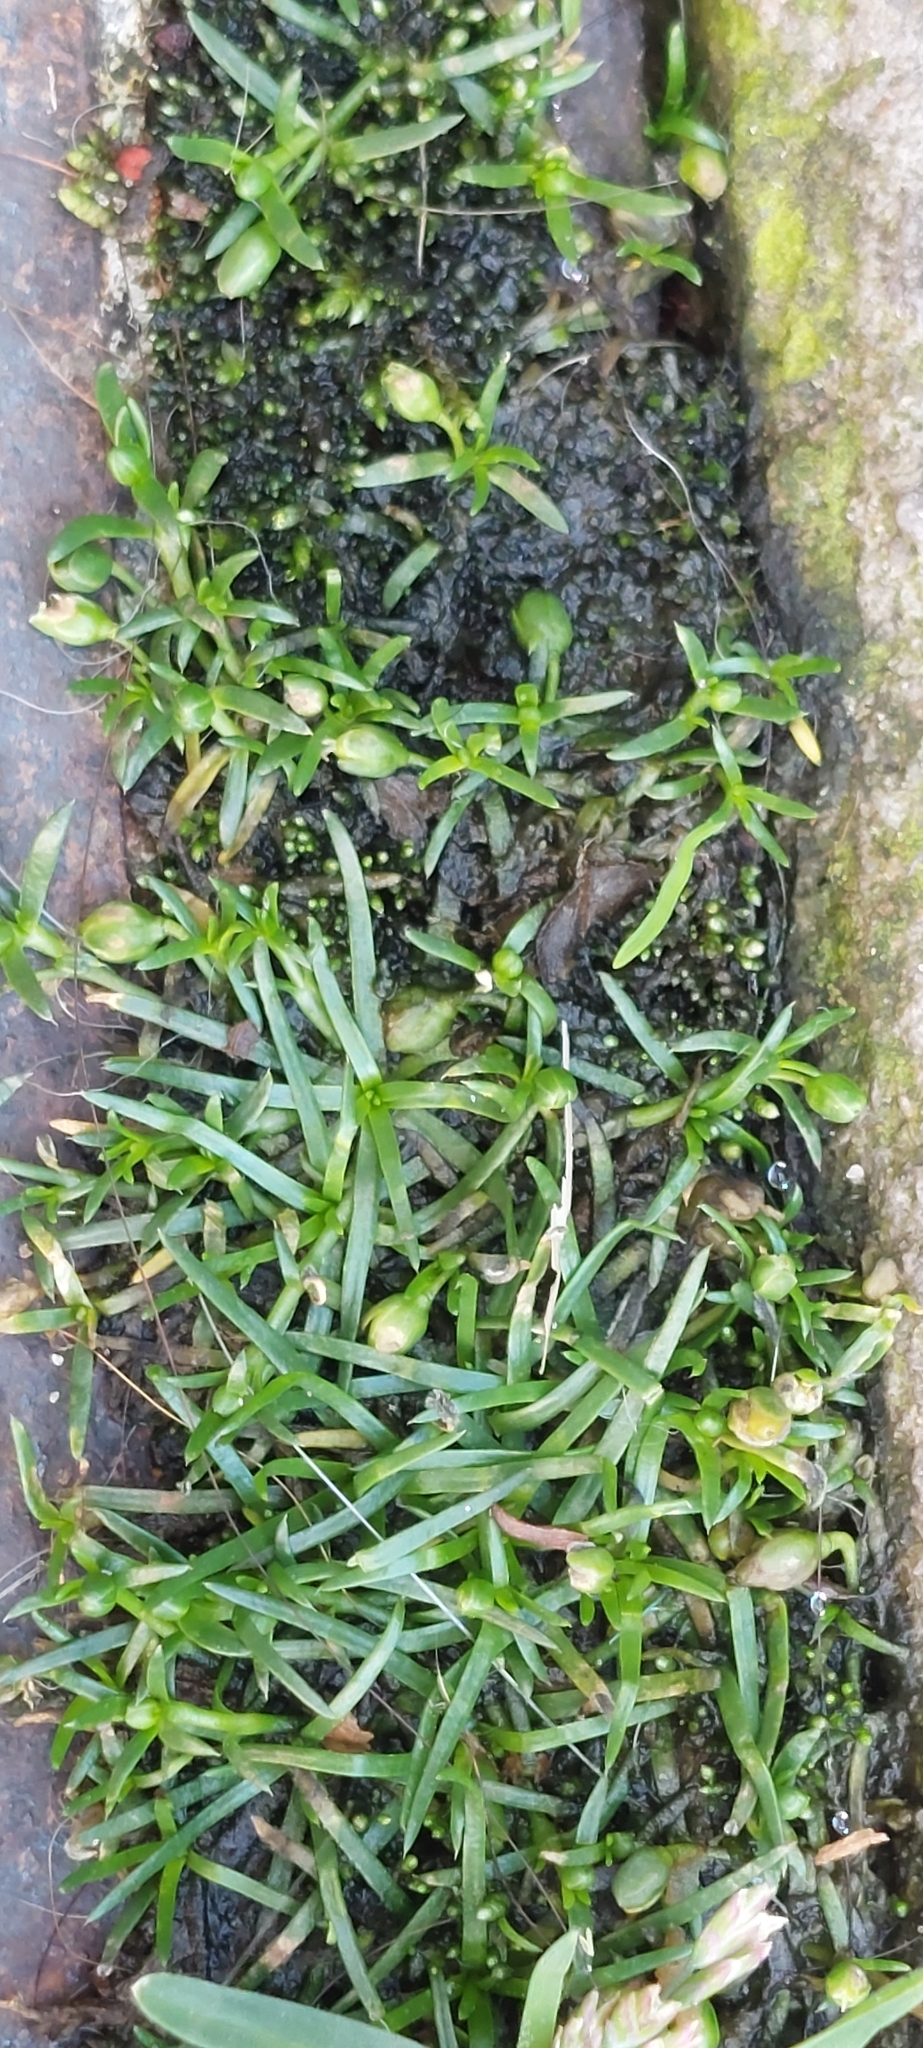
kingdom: Plantae
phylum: Tracheophyta
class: Magnoliopsida
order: Caryophyllales
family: Caryophyllaceae
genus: Sagina
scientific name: Sagina procumbens
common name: Procumbent pearlwort
